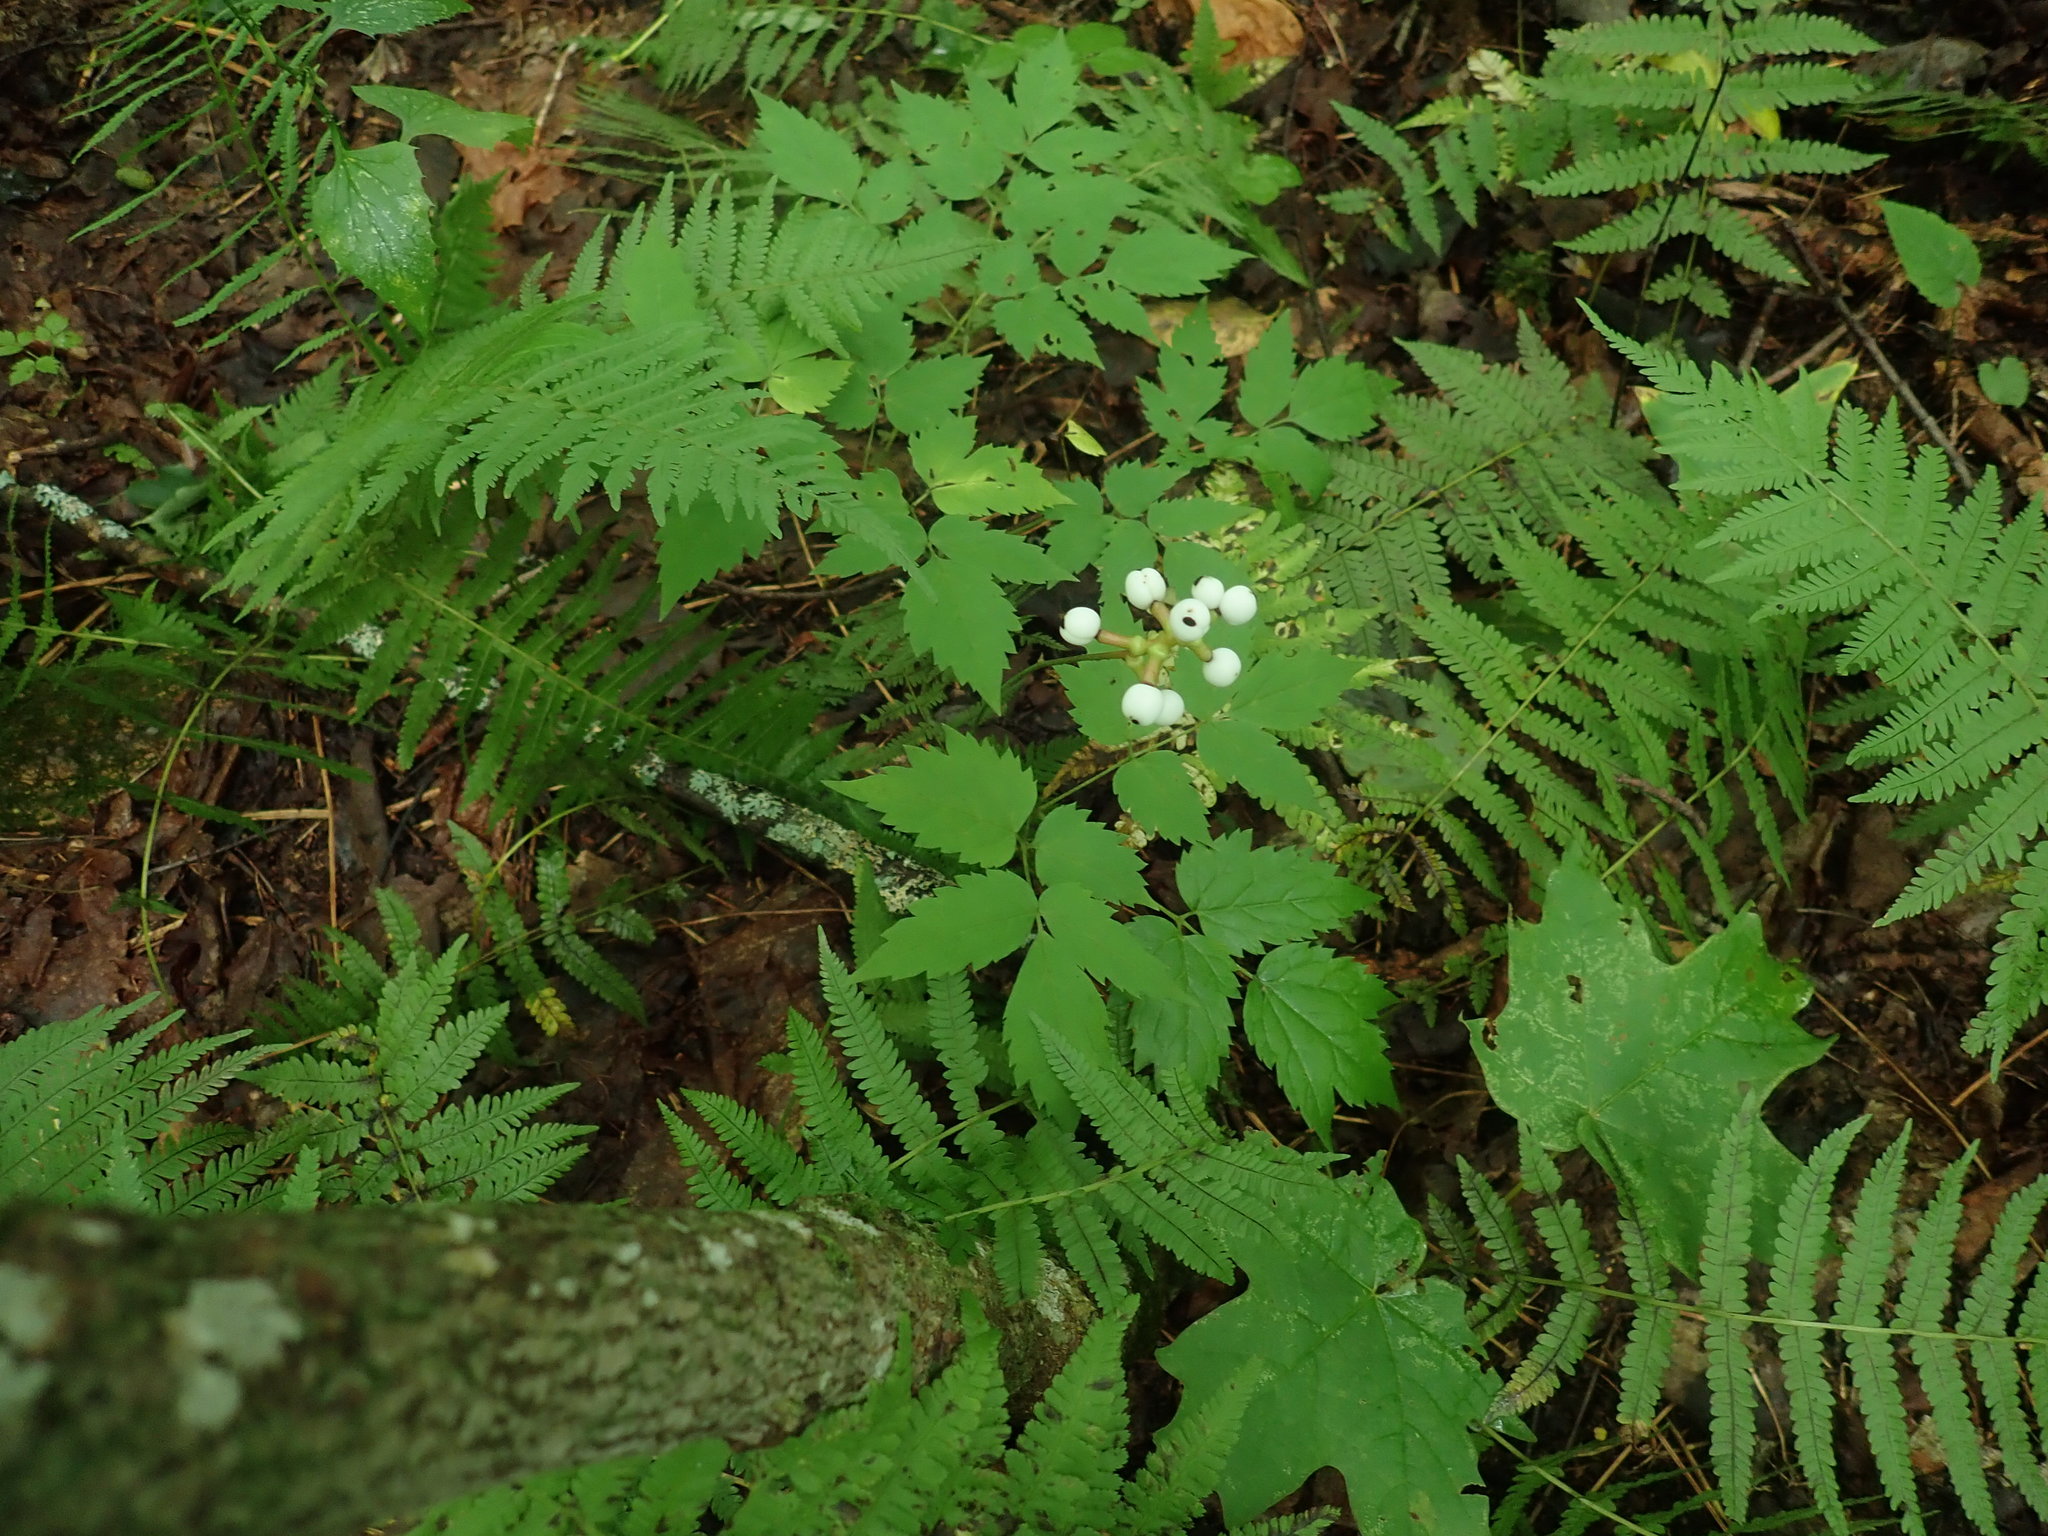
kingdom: Plantae
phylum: Tracheophyta
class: Magnoliopsida
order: Ranunculales
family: Ranunculaceae
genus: Actaea
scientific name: Actaea pachypoda
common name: Doll's-eyes
